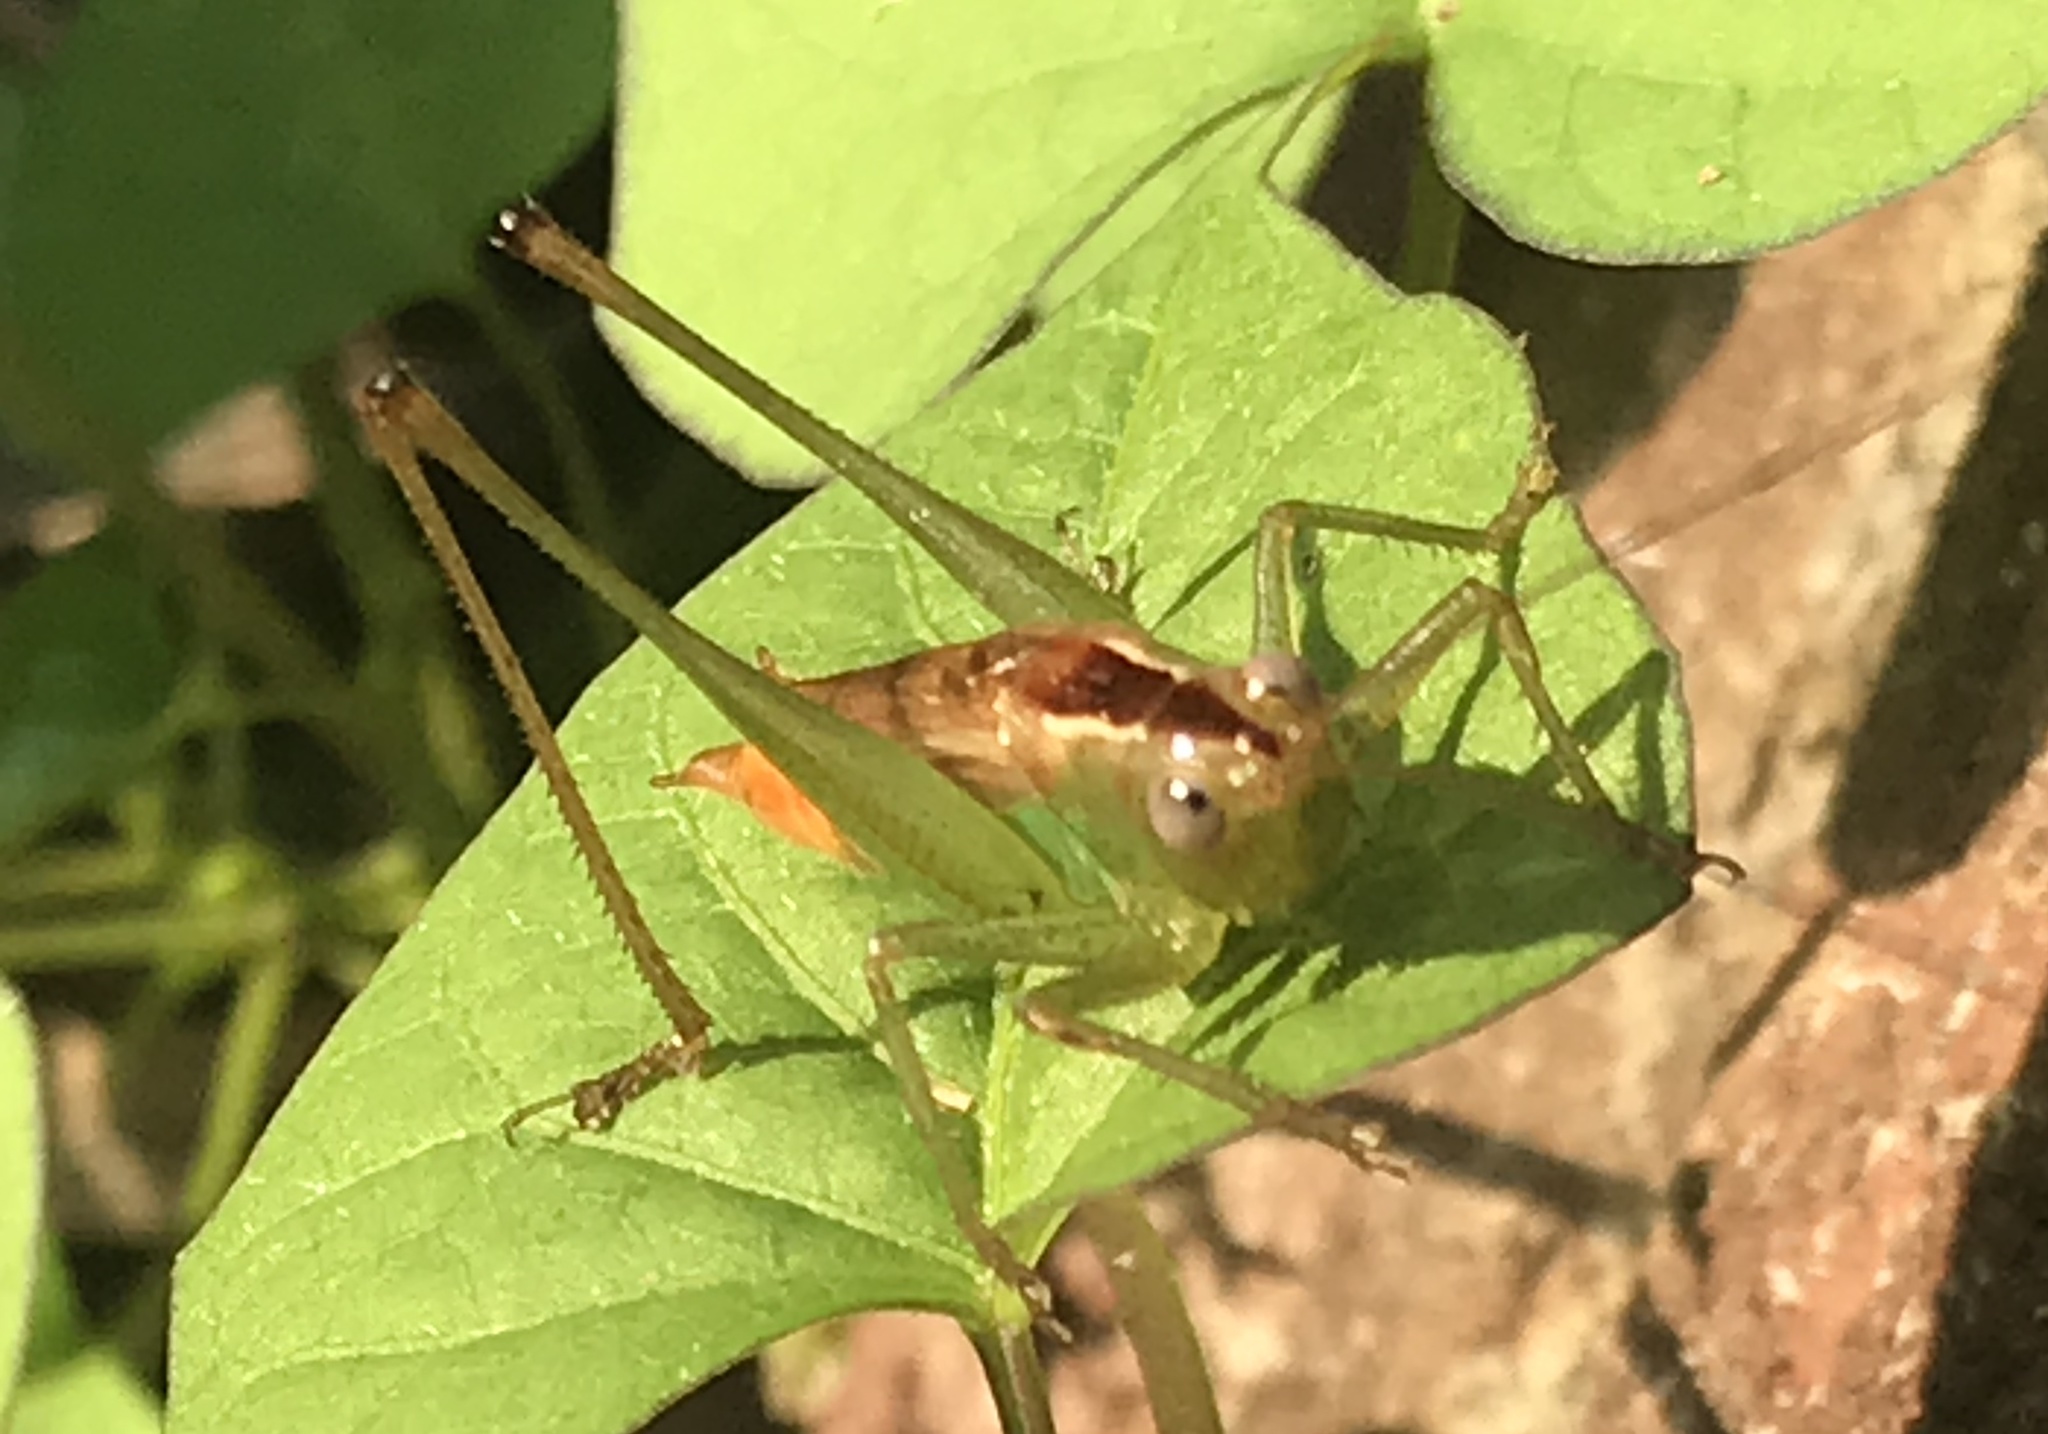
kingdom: Animalia
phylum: Arthropoda
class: Insecta
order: Orthoptera
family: Tettigoniidae
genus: Conocephalus
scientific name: Conocephalus brevipennis
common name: Short-winged meadow katydid
